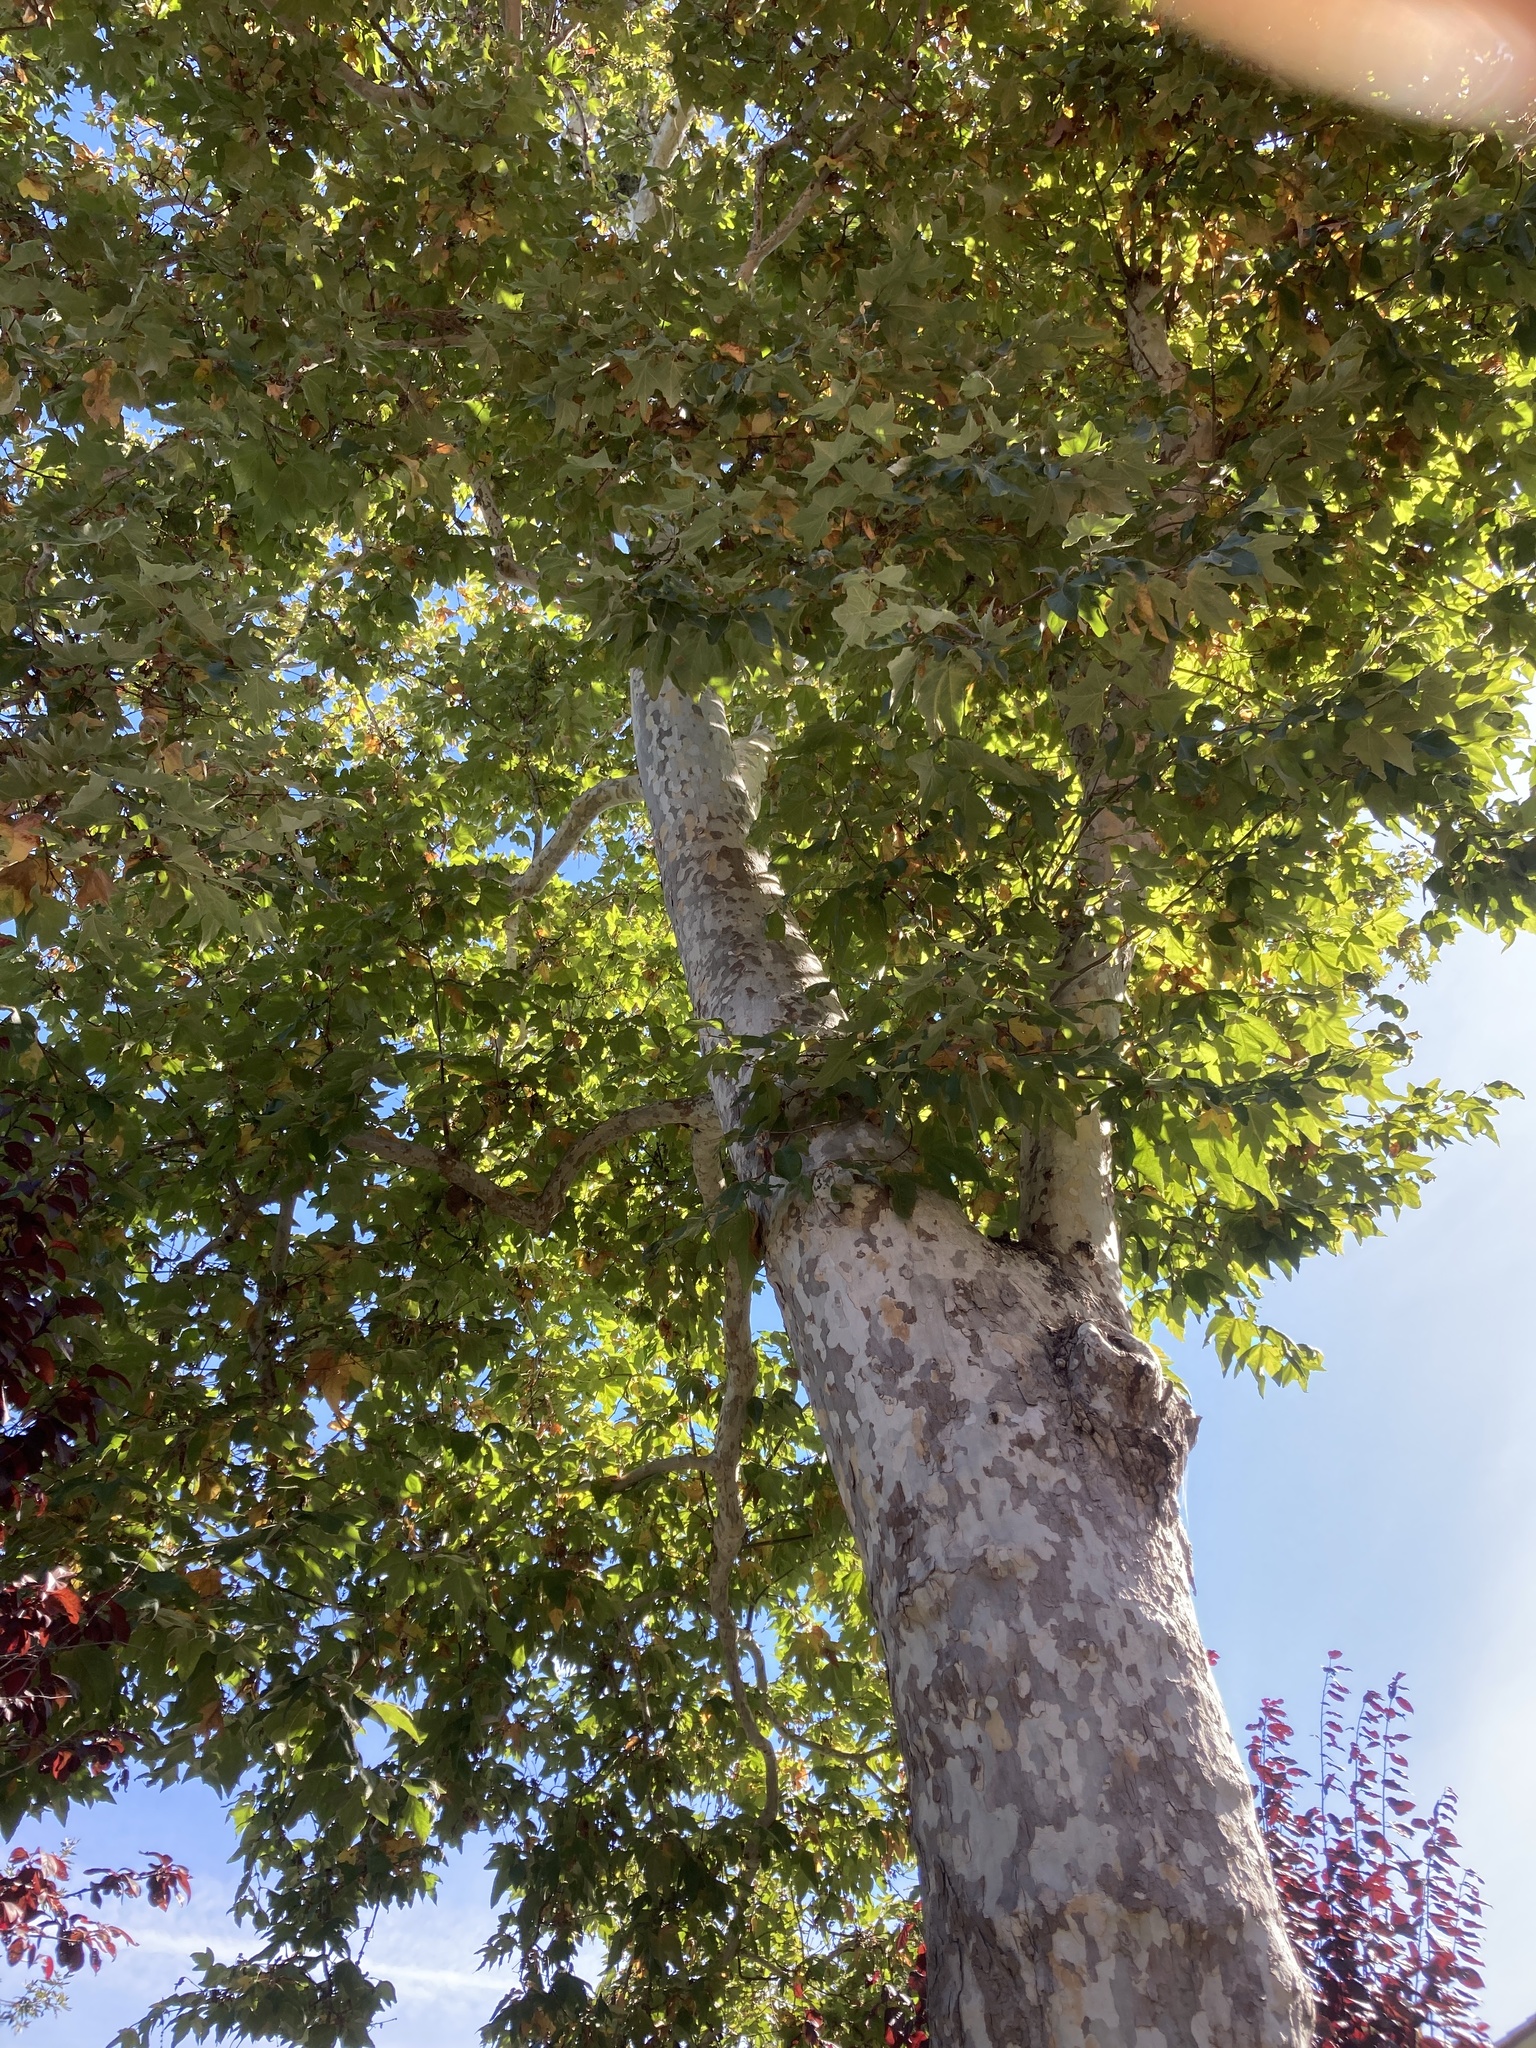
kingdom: Plantae
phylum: Tracheophyta
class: Magnoliopsida
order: Proteales
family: Platanaceae
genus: Platanus
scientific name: Platanus racemosa
